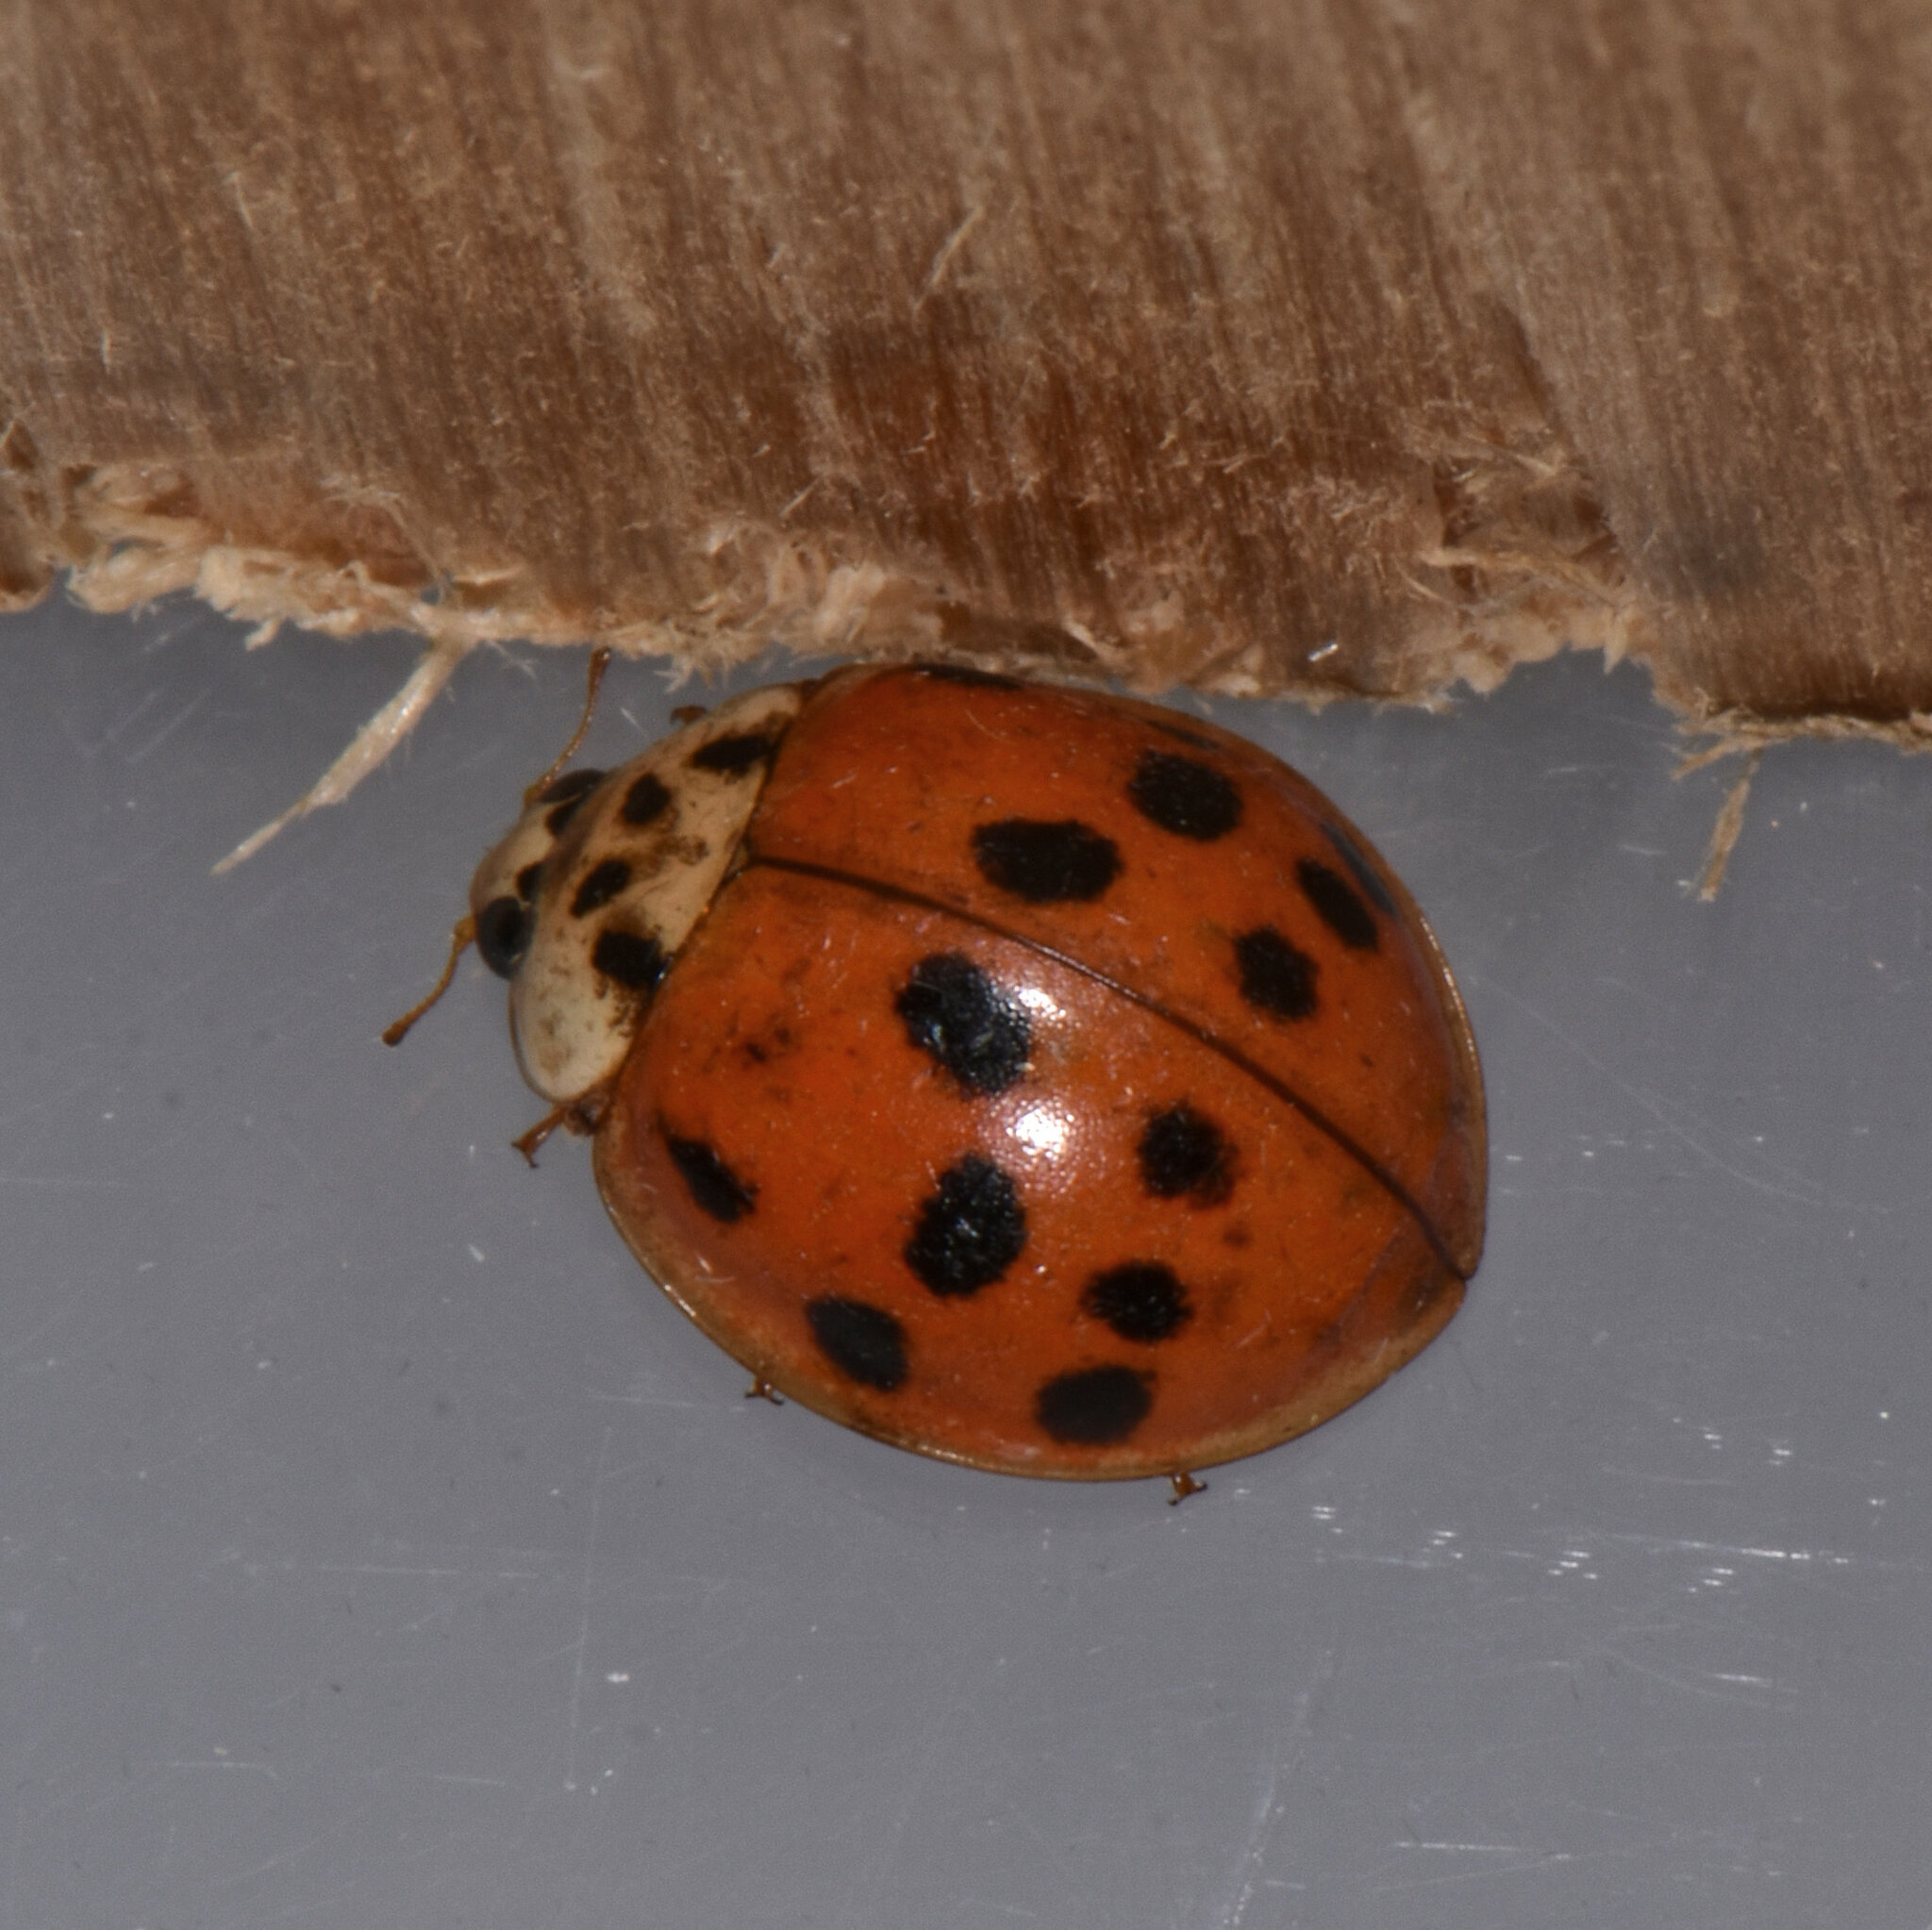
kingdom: Animalia
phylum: Arthropoda
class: Insecta
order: Coleoptera
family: Coccinellidae
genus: Harmonia
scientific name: Harmonia axyridis
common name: Harlequin ladybird
